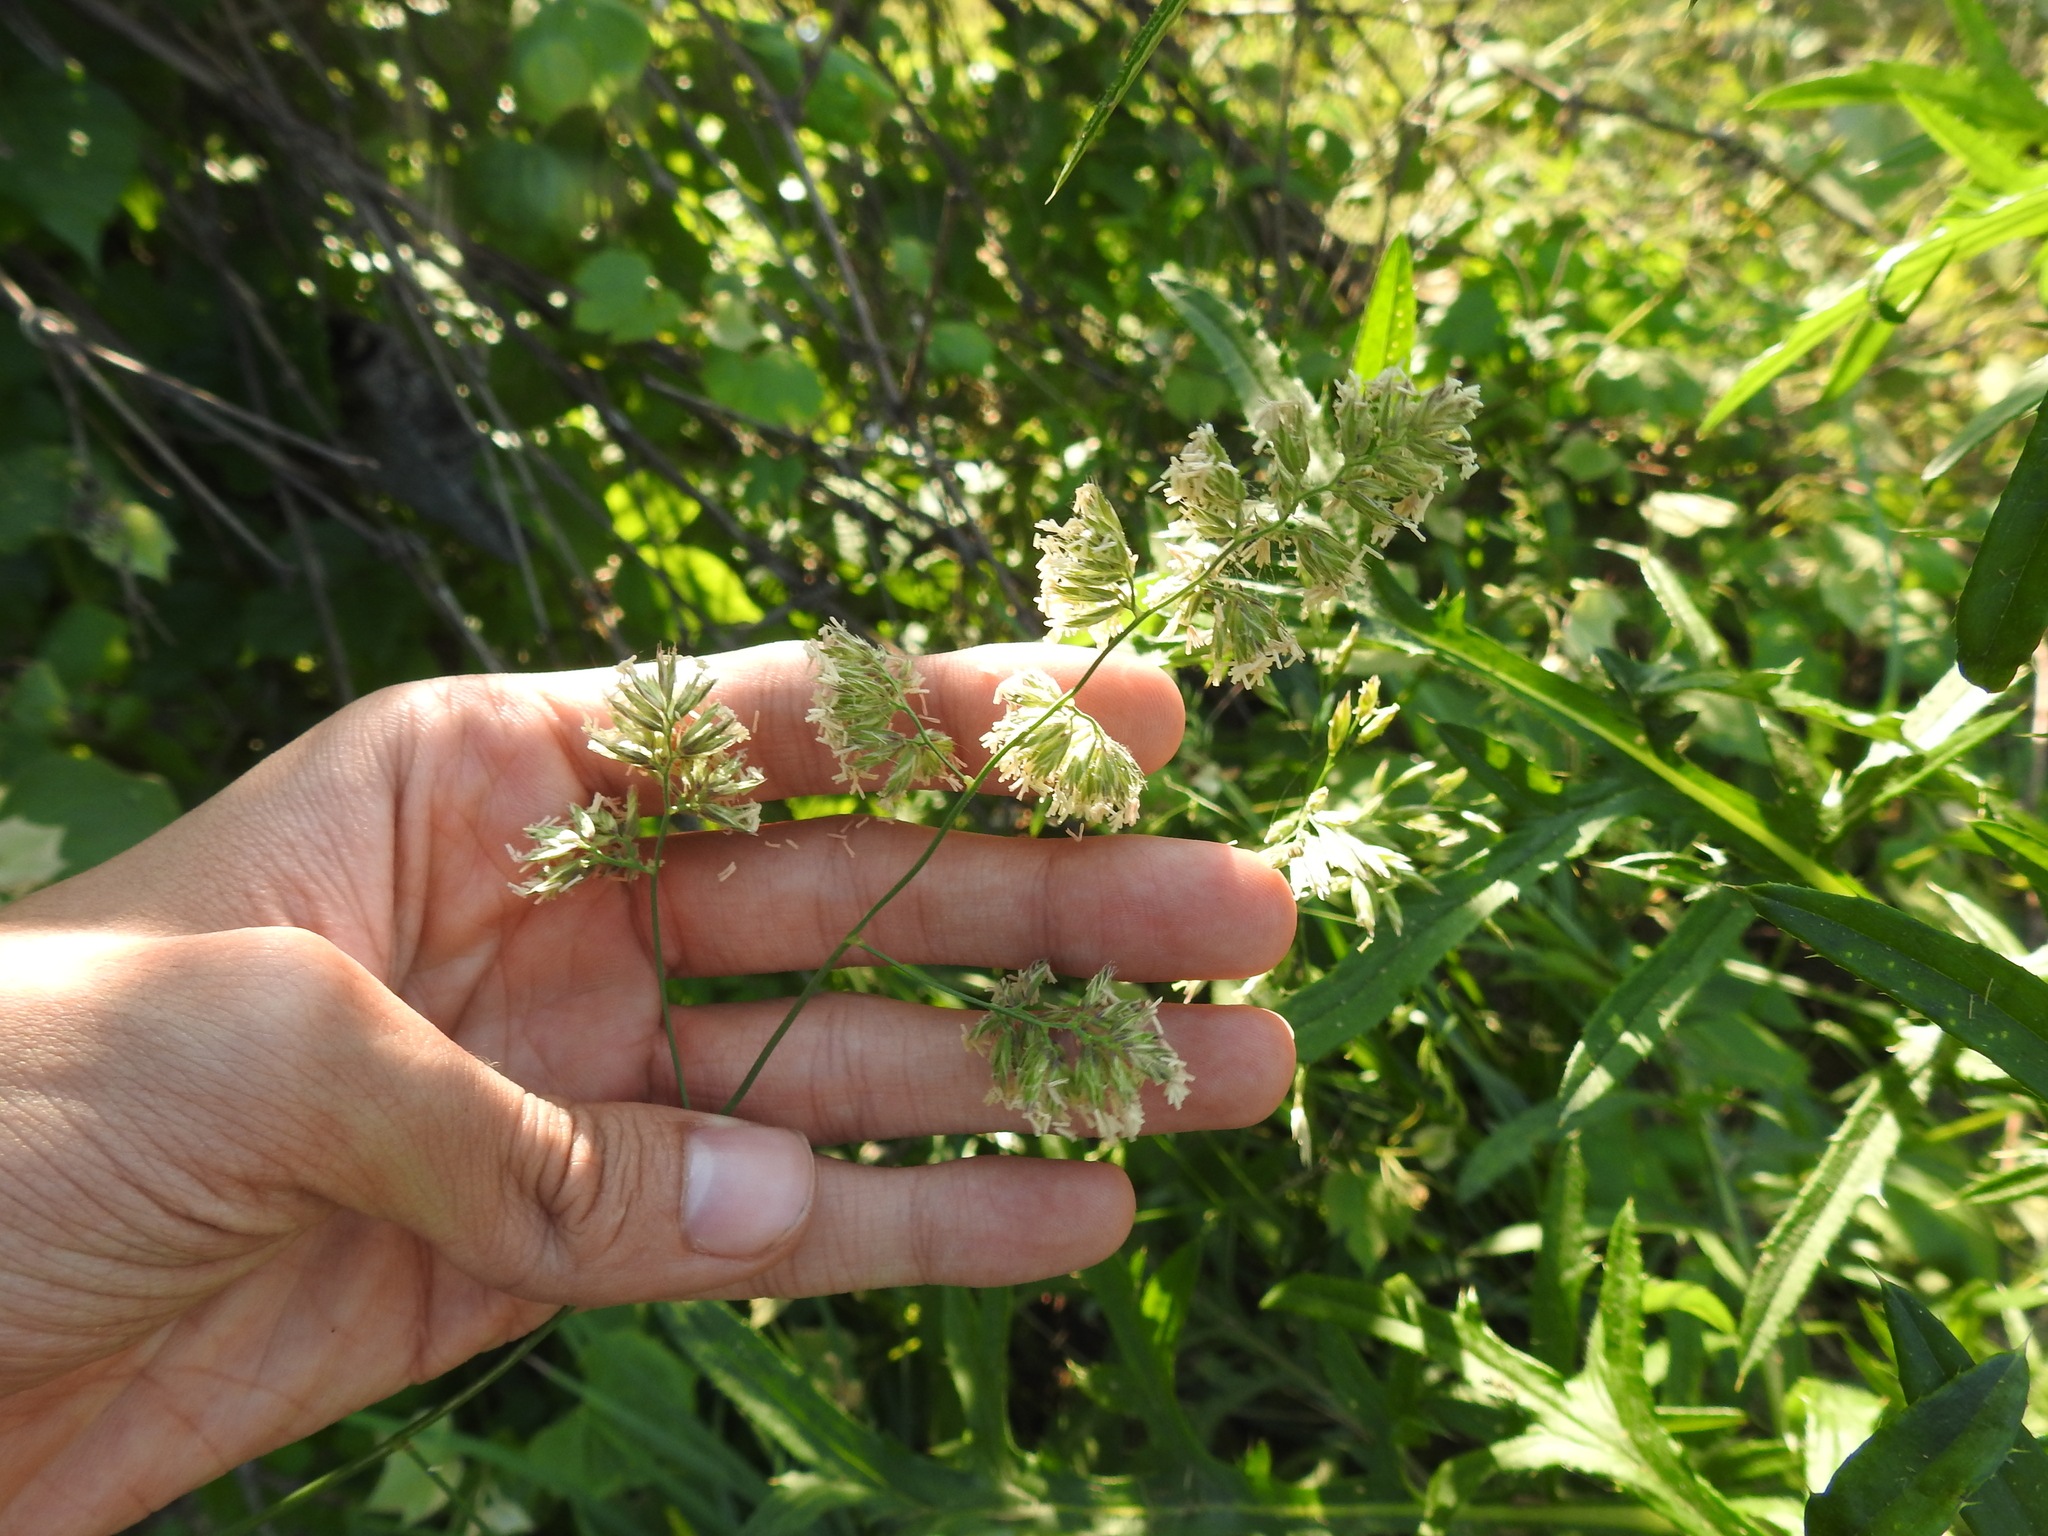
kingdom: Plantae
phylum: Tracheophyta
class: Liliopsida
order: Poales
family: Poaceae
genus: Dactylis
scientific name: Dactylis glomerata
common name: Orchardgrass
